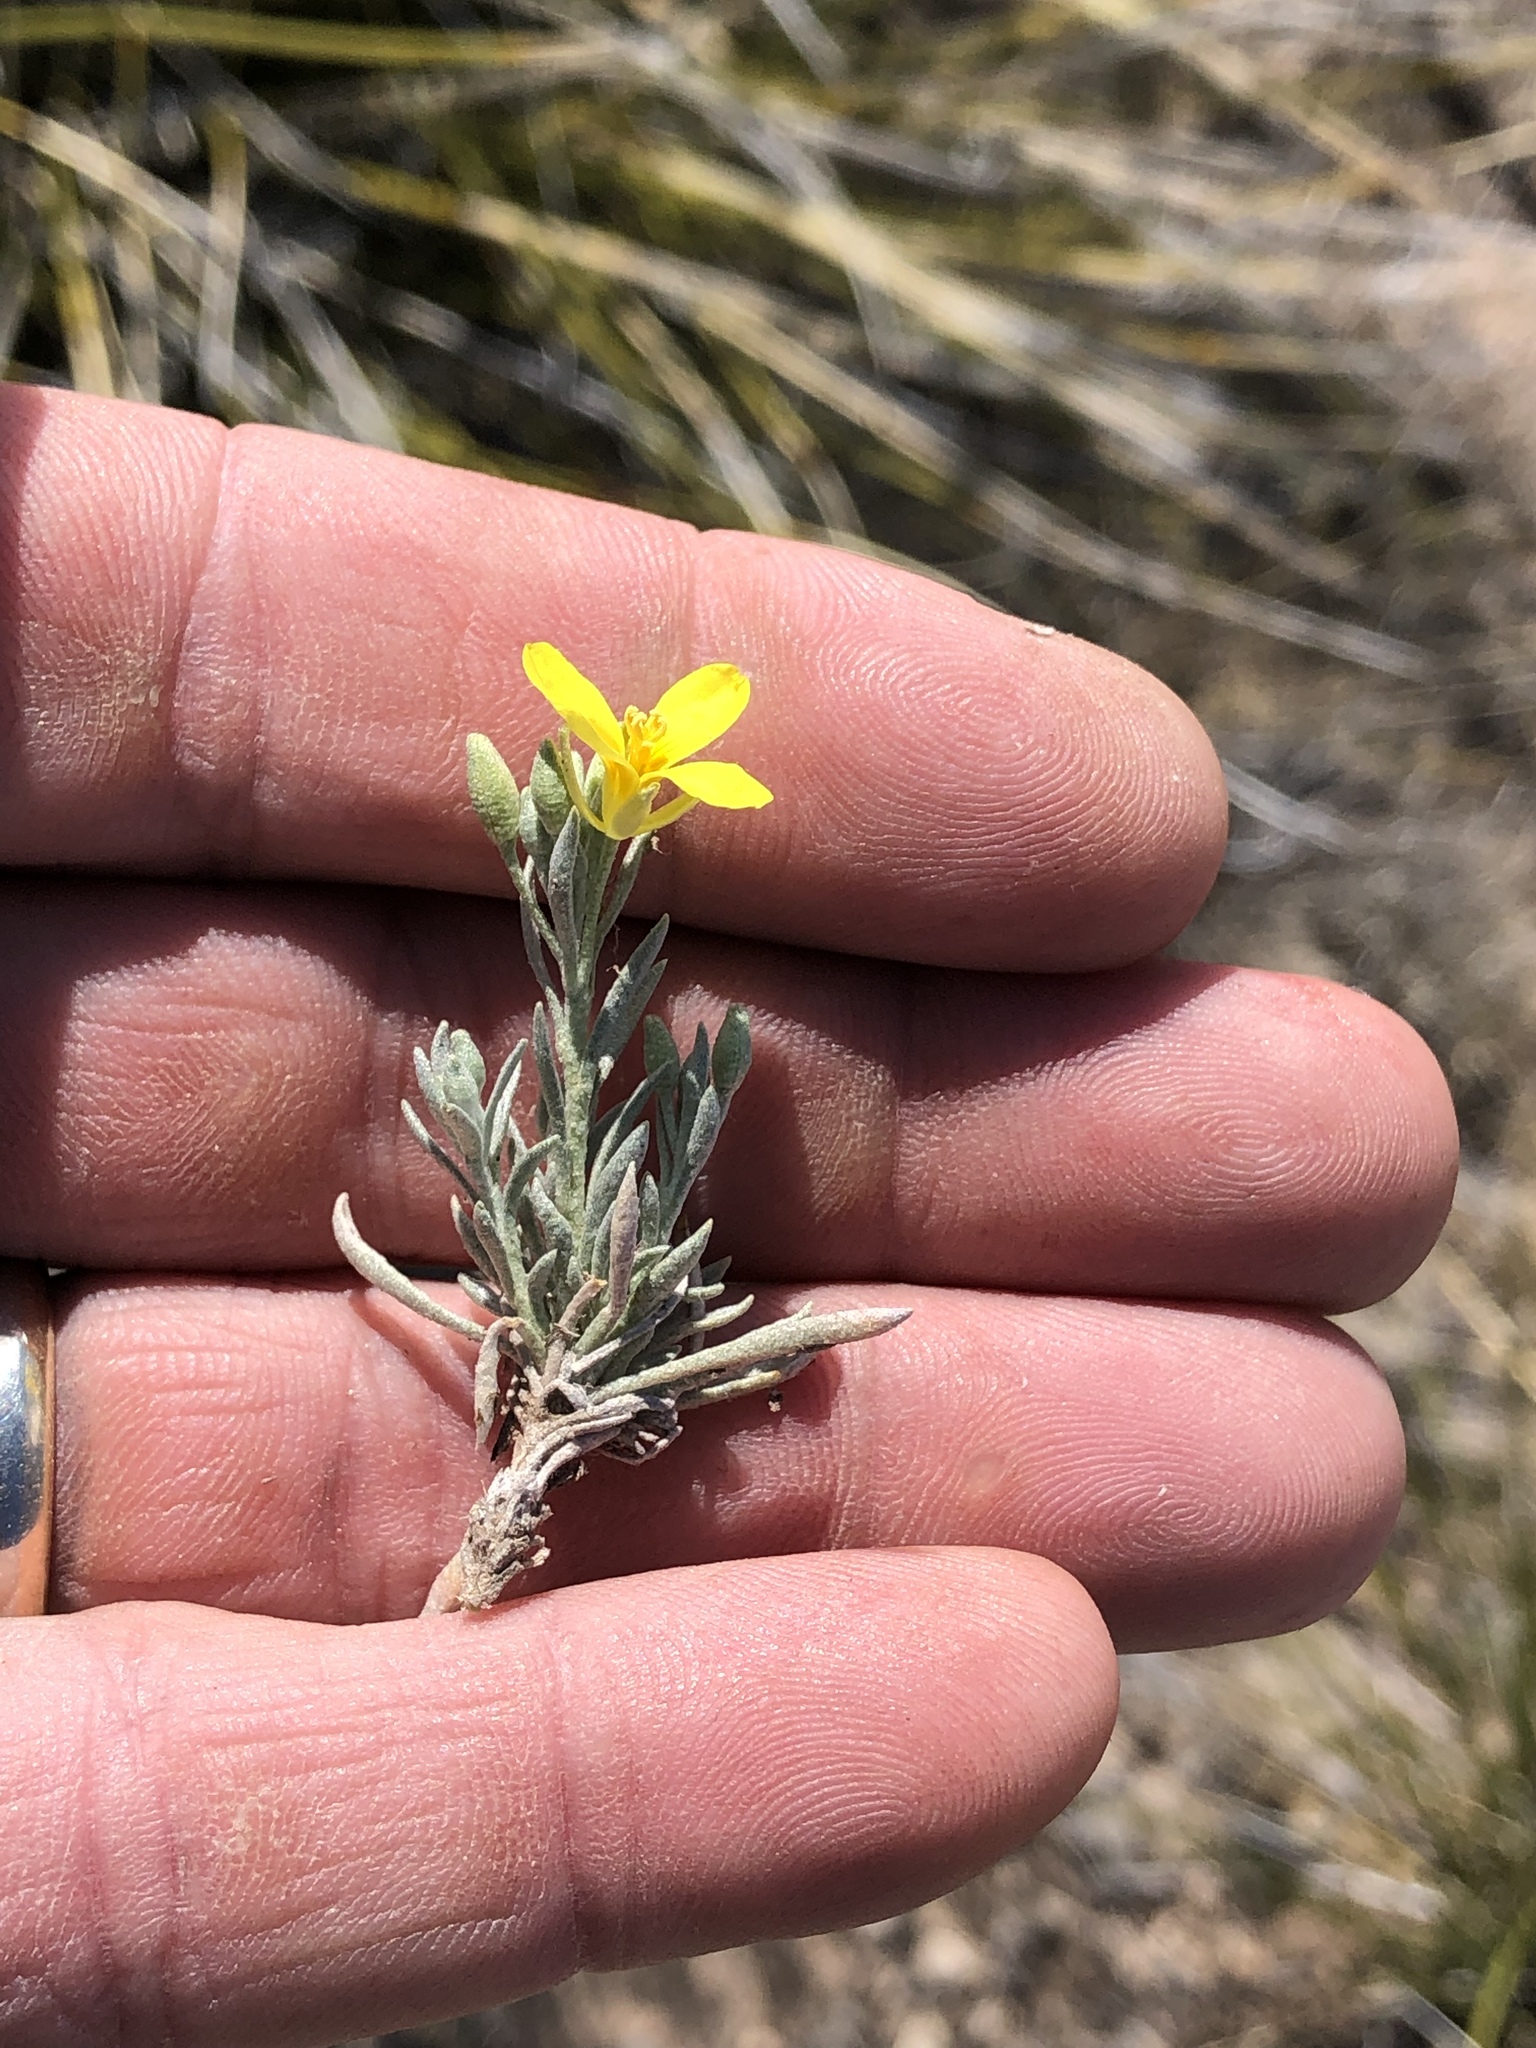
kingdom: Plantae
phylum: Tracheophyta
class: Magnoliopsida
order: Brassicales
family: Brassicaceae
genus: Physaria
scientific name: Physaria fendleri
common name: Fendler's bladderpod
